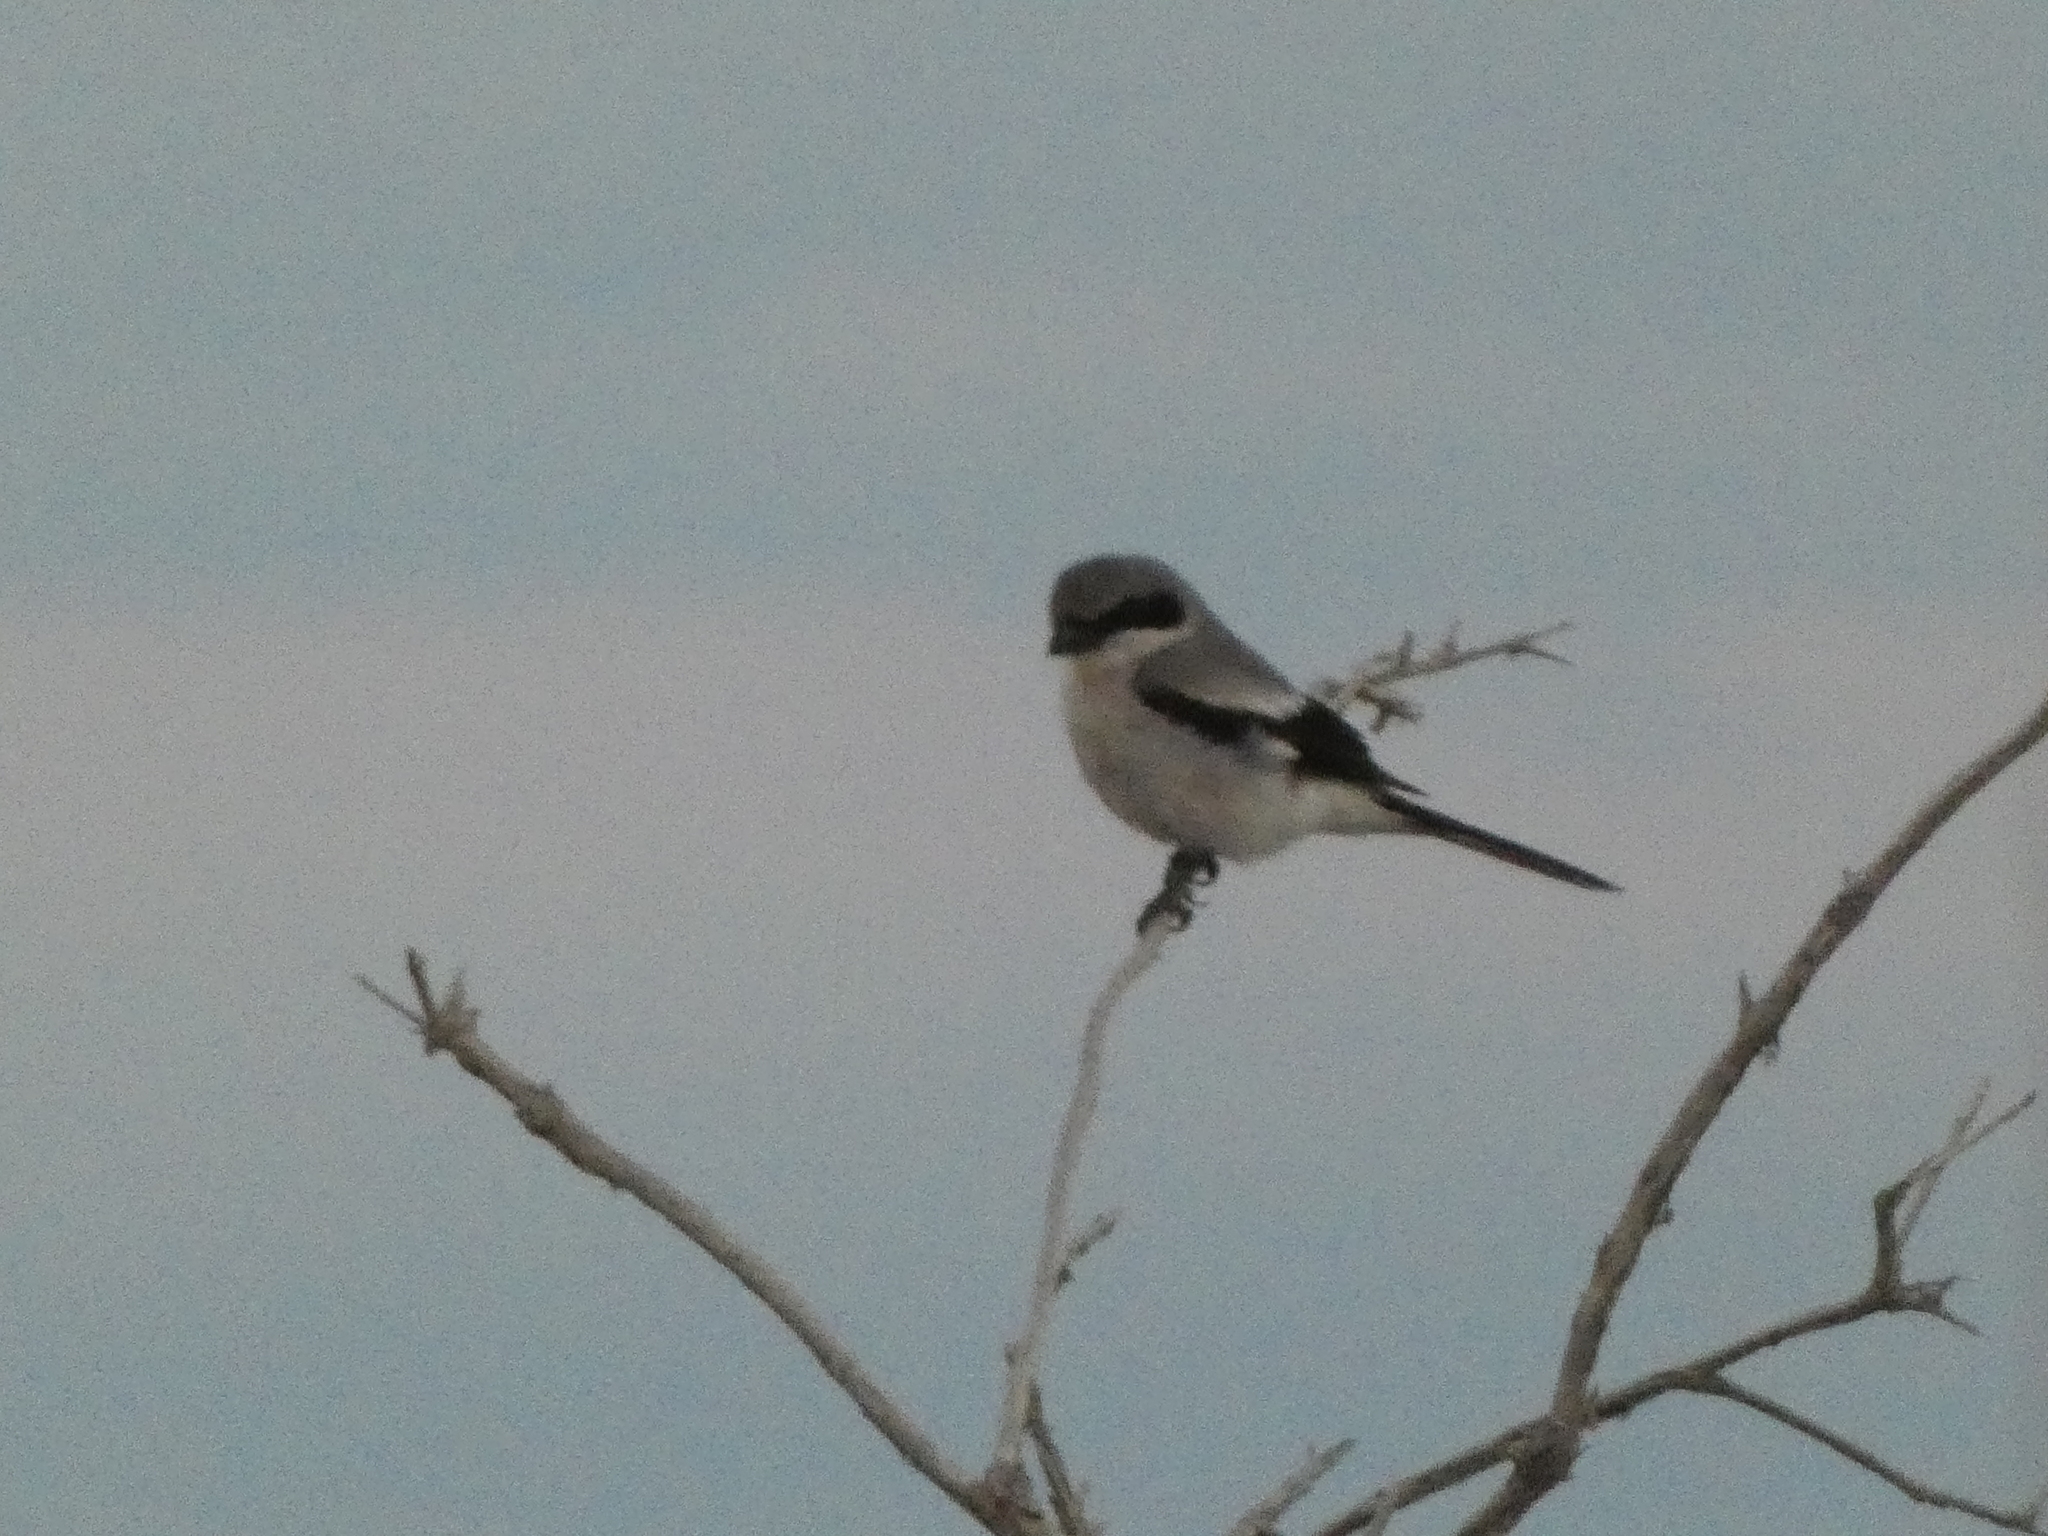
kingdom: Animalia
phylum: Chordata
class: Aves
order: Passeriformes
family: Laniidae
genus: Lanius
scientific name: Lanius ludovicianus
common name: Loggerhead shrike
